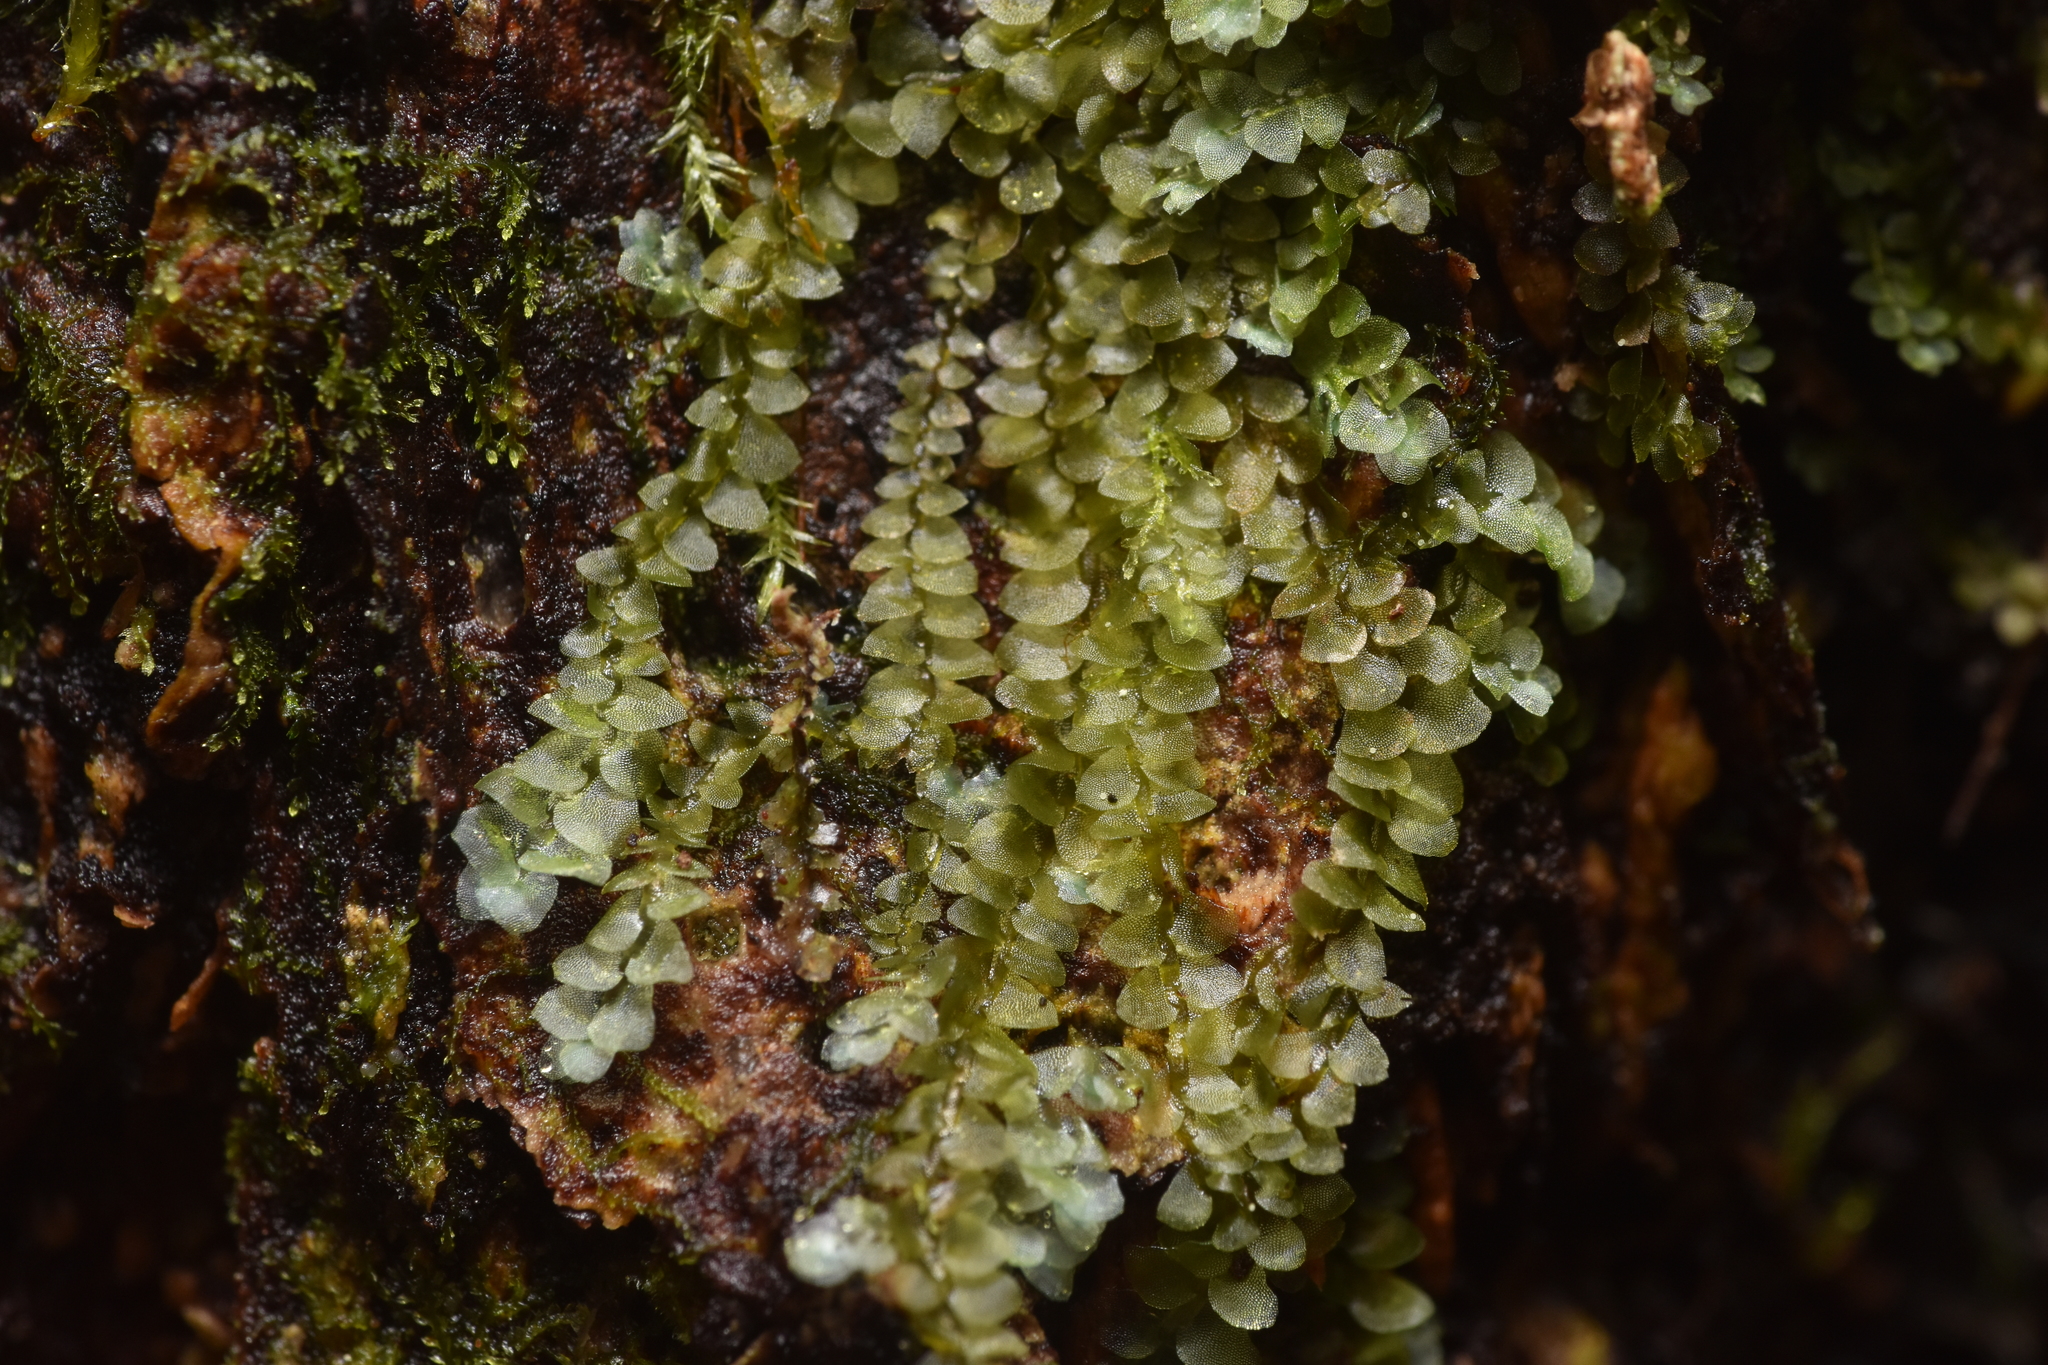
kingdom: Plantae
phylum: Marchantiophyta
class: Jungermanniopsida
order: Jungermanniales
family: Calypogeiaceae
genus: Calypogeia
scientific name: Calypogeia azurea
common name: Blue pouchwort
